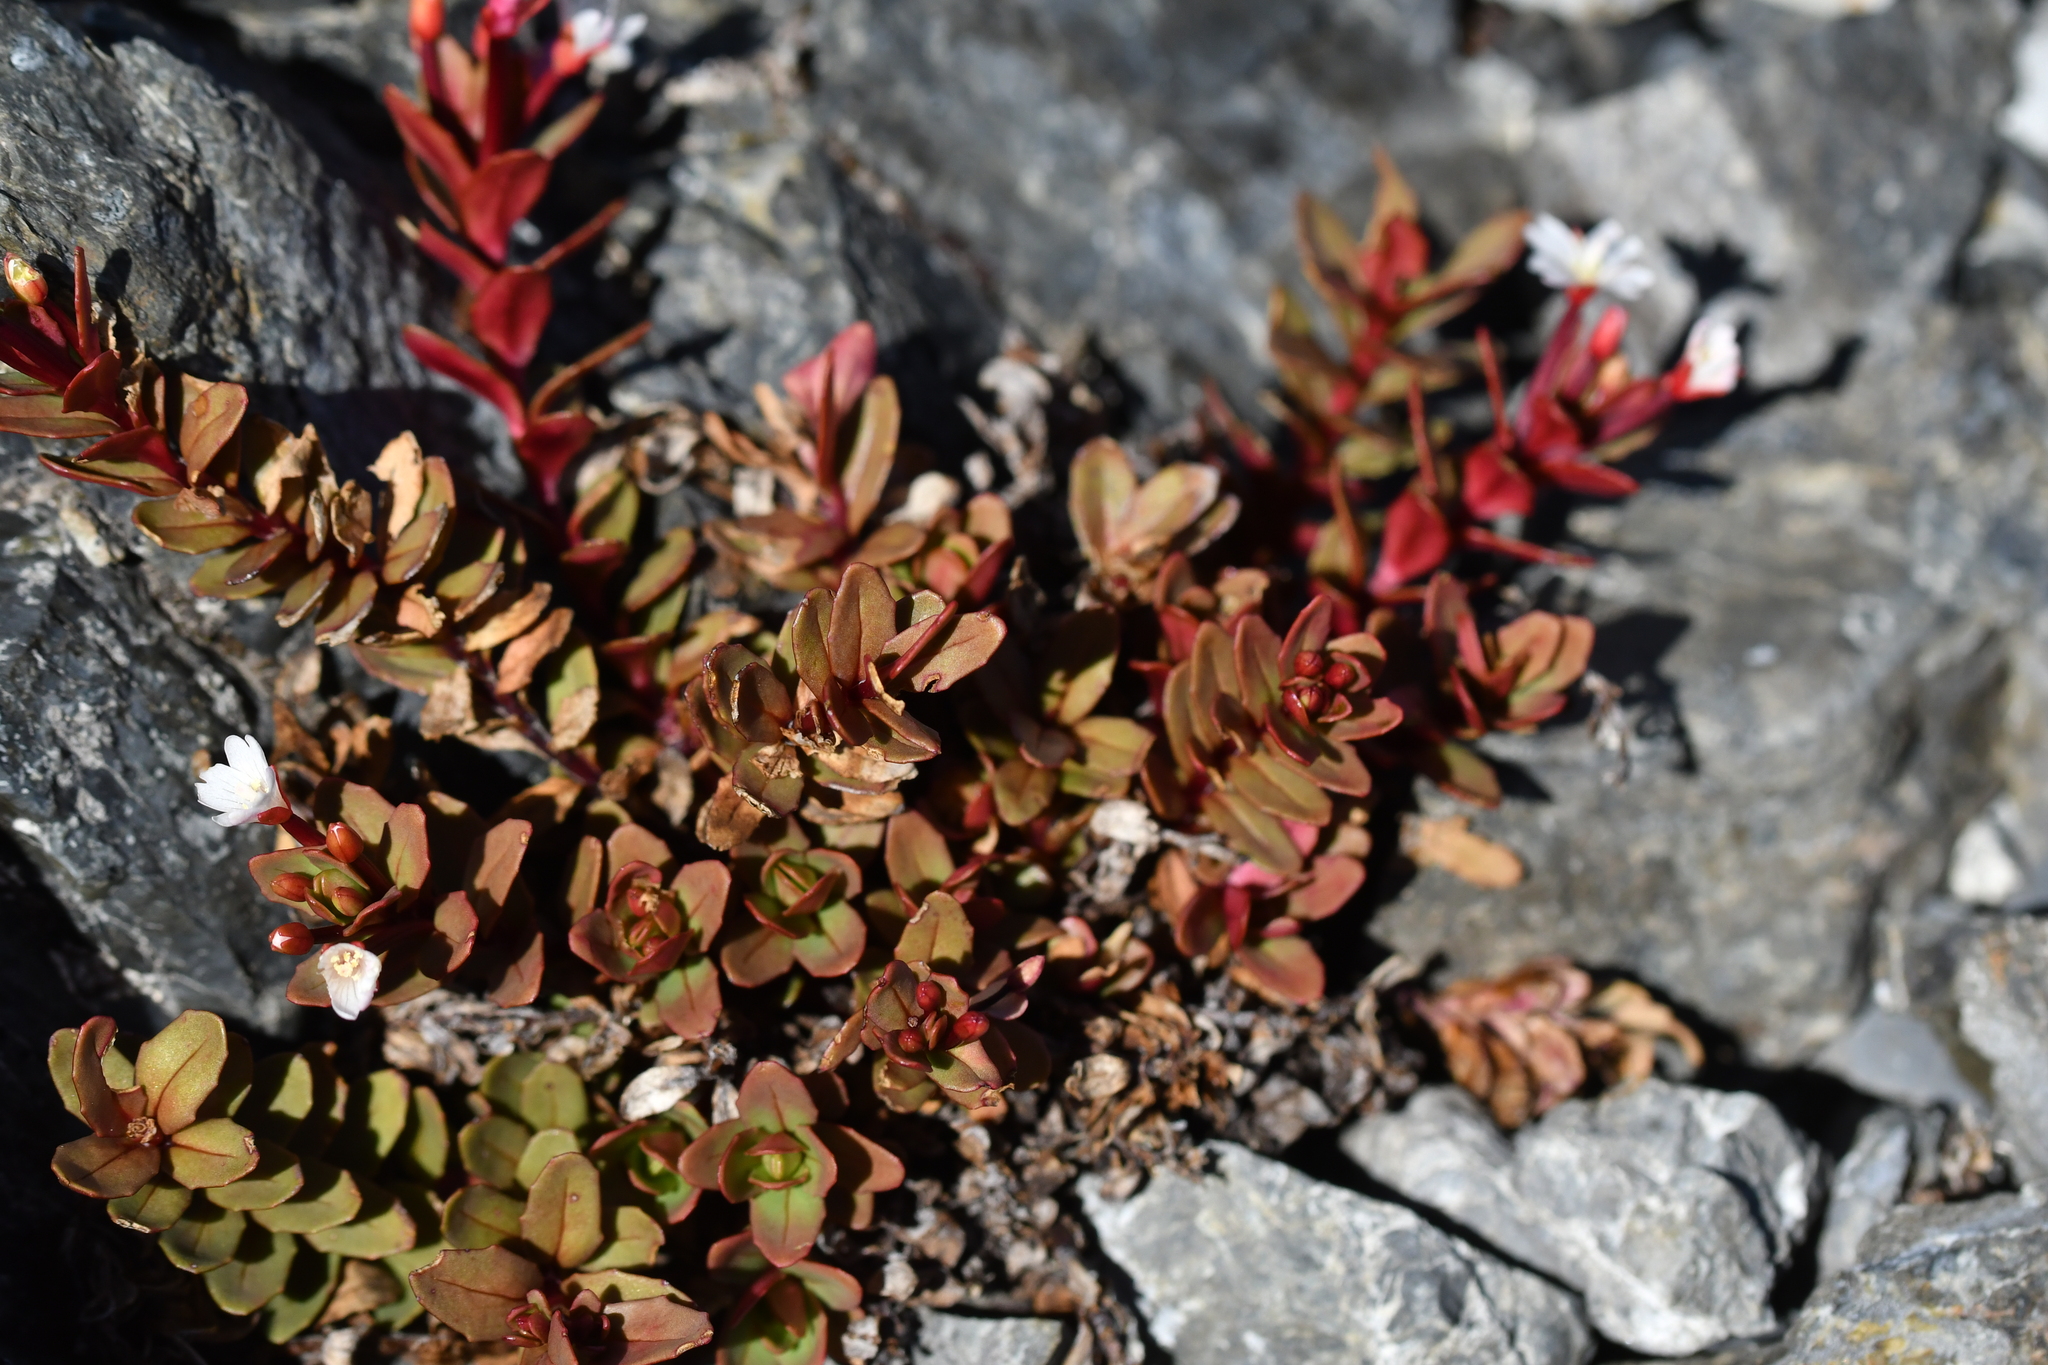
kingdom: Plantae
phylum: Tracheophyta
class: Magnoliopsida
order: Myrtales
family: Onagraceae
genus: Epilobium
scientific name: Epilobium porphyrium
